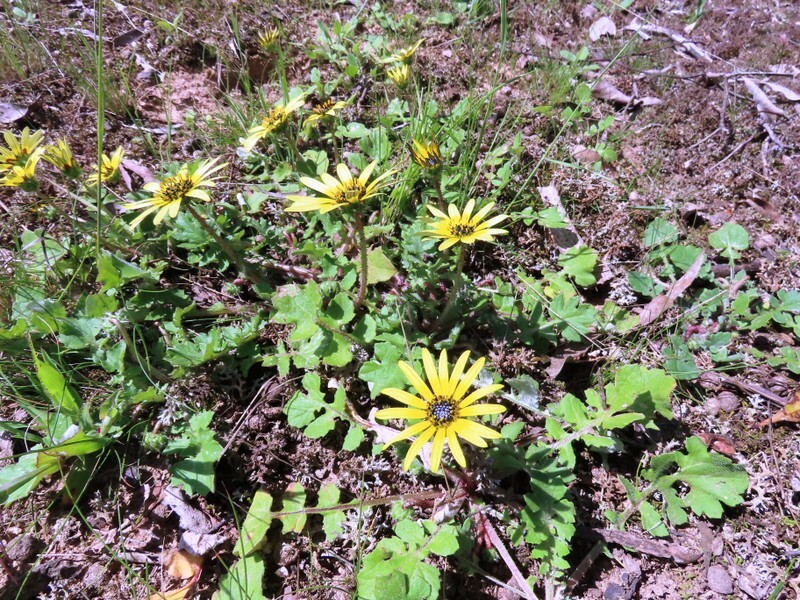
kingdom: Plantae
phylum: Tracheophyta
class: Magnoliopsida
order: Asterales
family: Asteraceae
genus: Arctotheca
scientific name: Arctotheca calendula
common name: Capeweed
